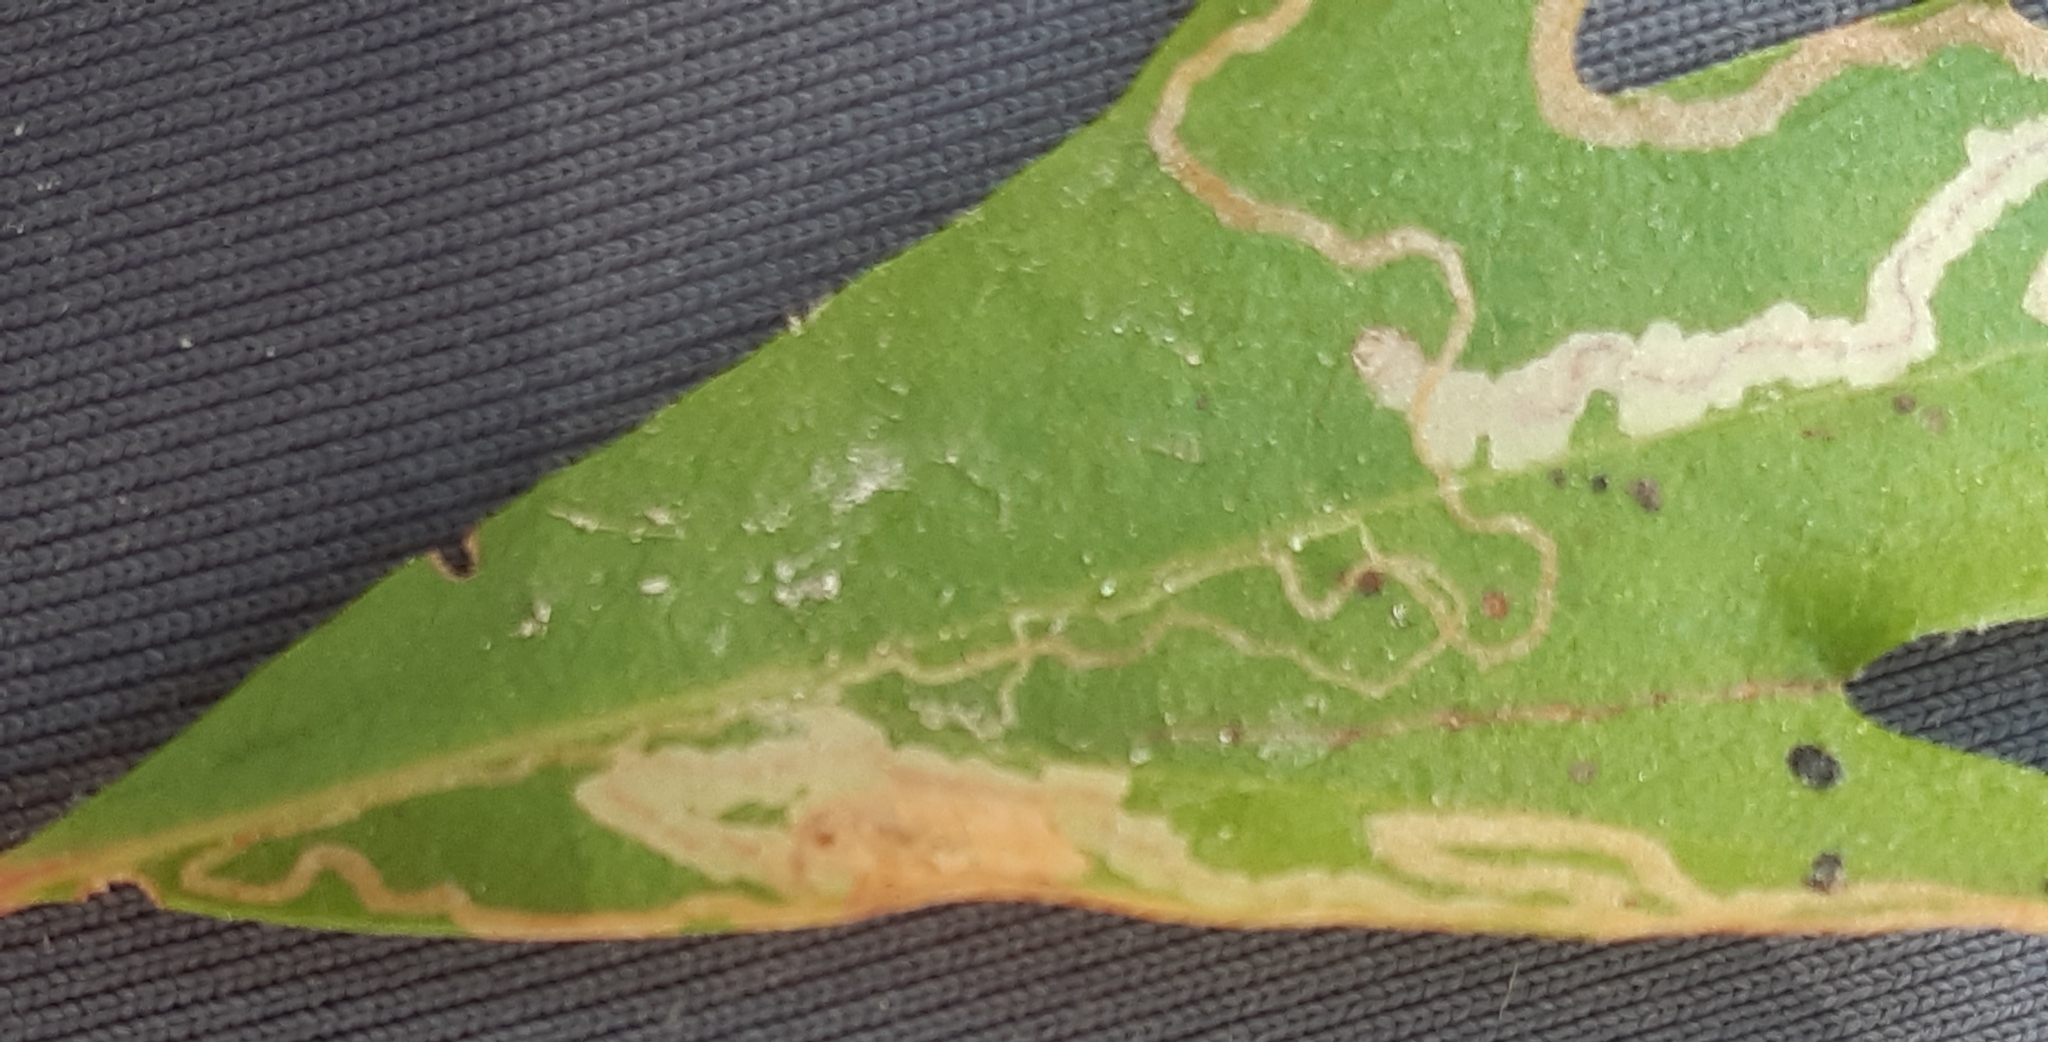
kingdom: Animalia
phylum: Arthropoda
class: Insecta
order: Lepidoptera
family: Nepticulidae
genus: Acalyptris
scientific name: Acalyptris platani
